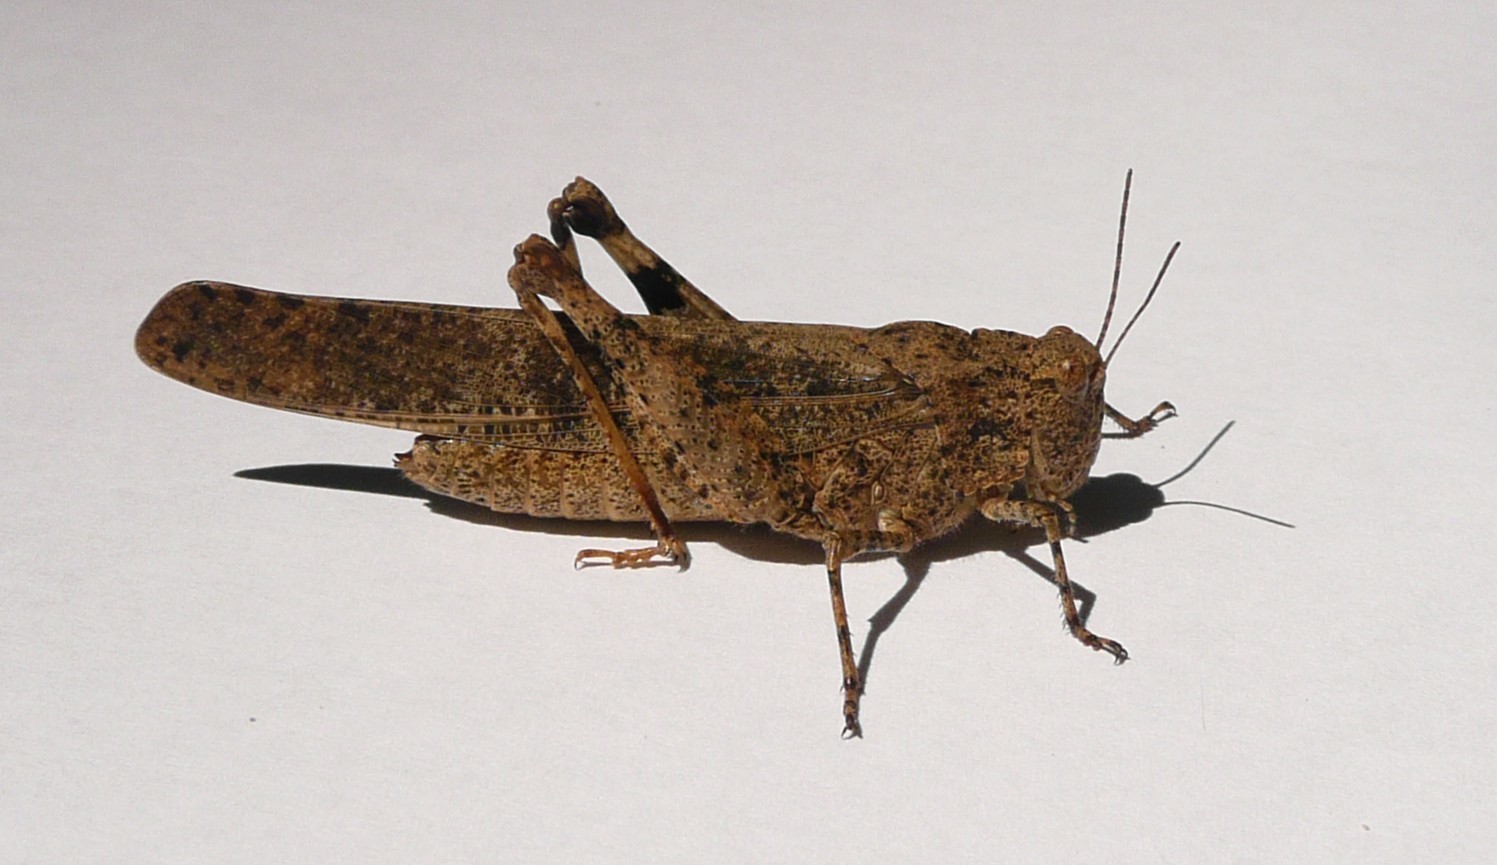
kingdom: Animalia
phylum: Arthropoda
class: Insecta
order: Orthoptera
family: Acrididae
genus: Dissosteira
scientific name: Dissosteira carolina
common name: Carolina grasshopper
